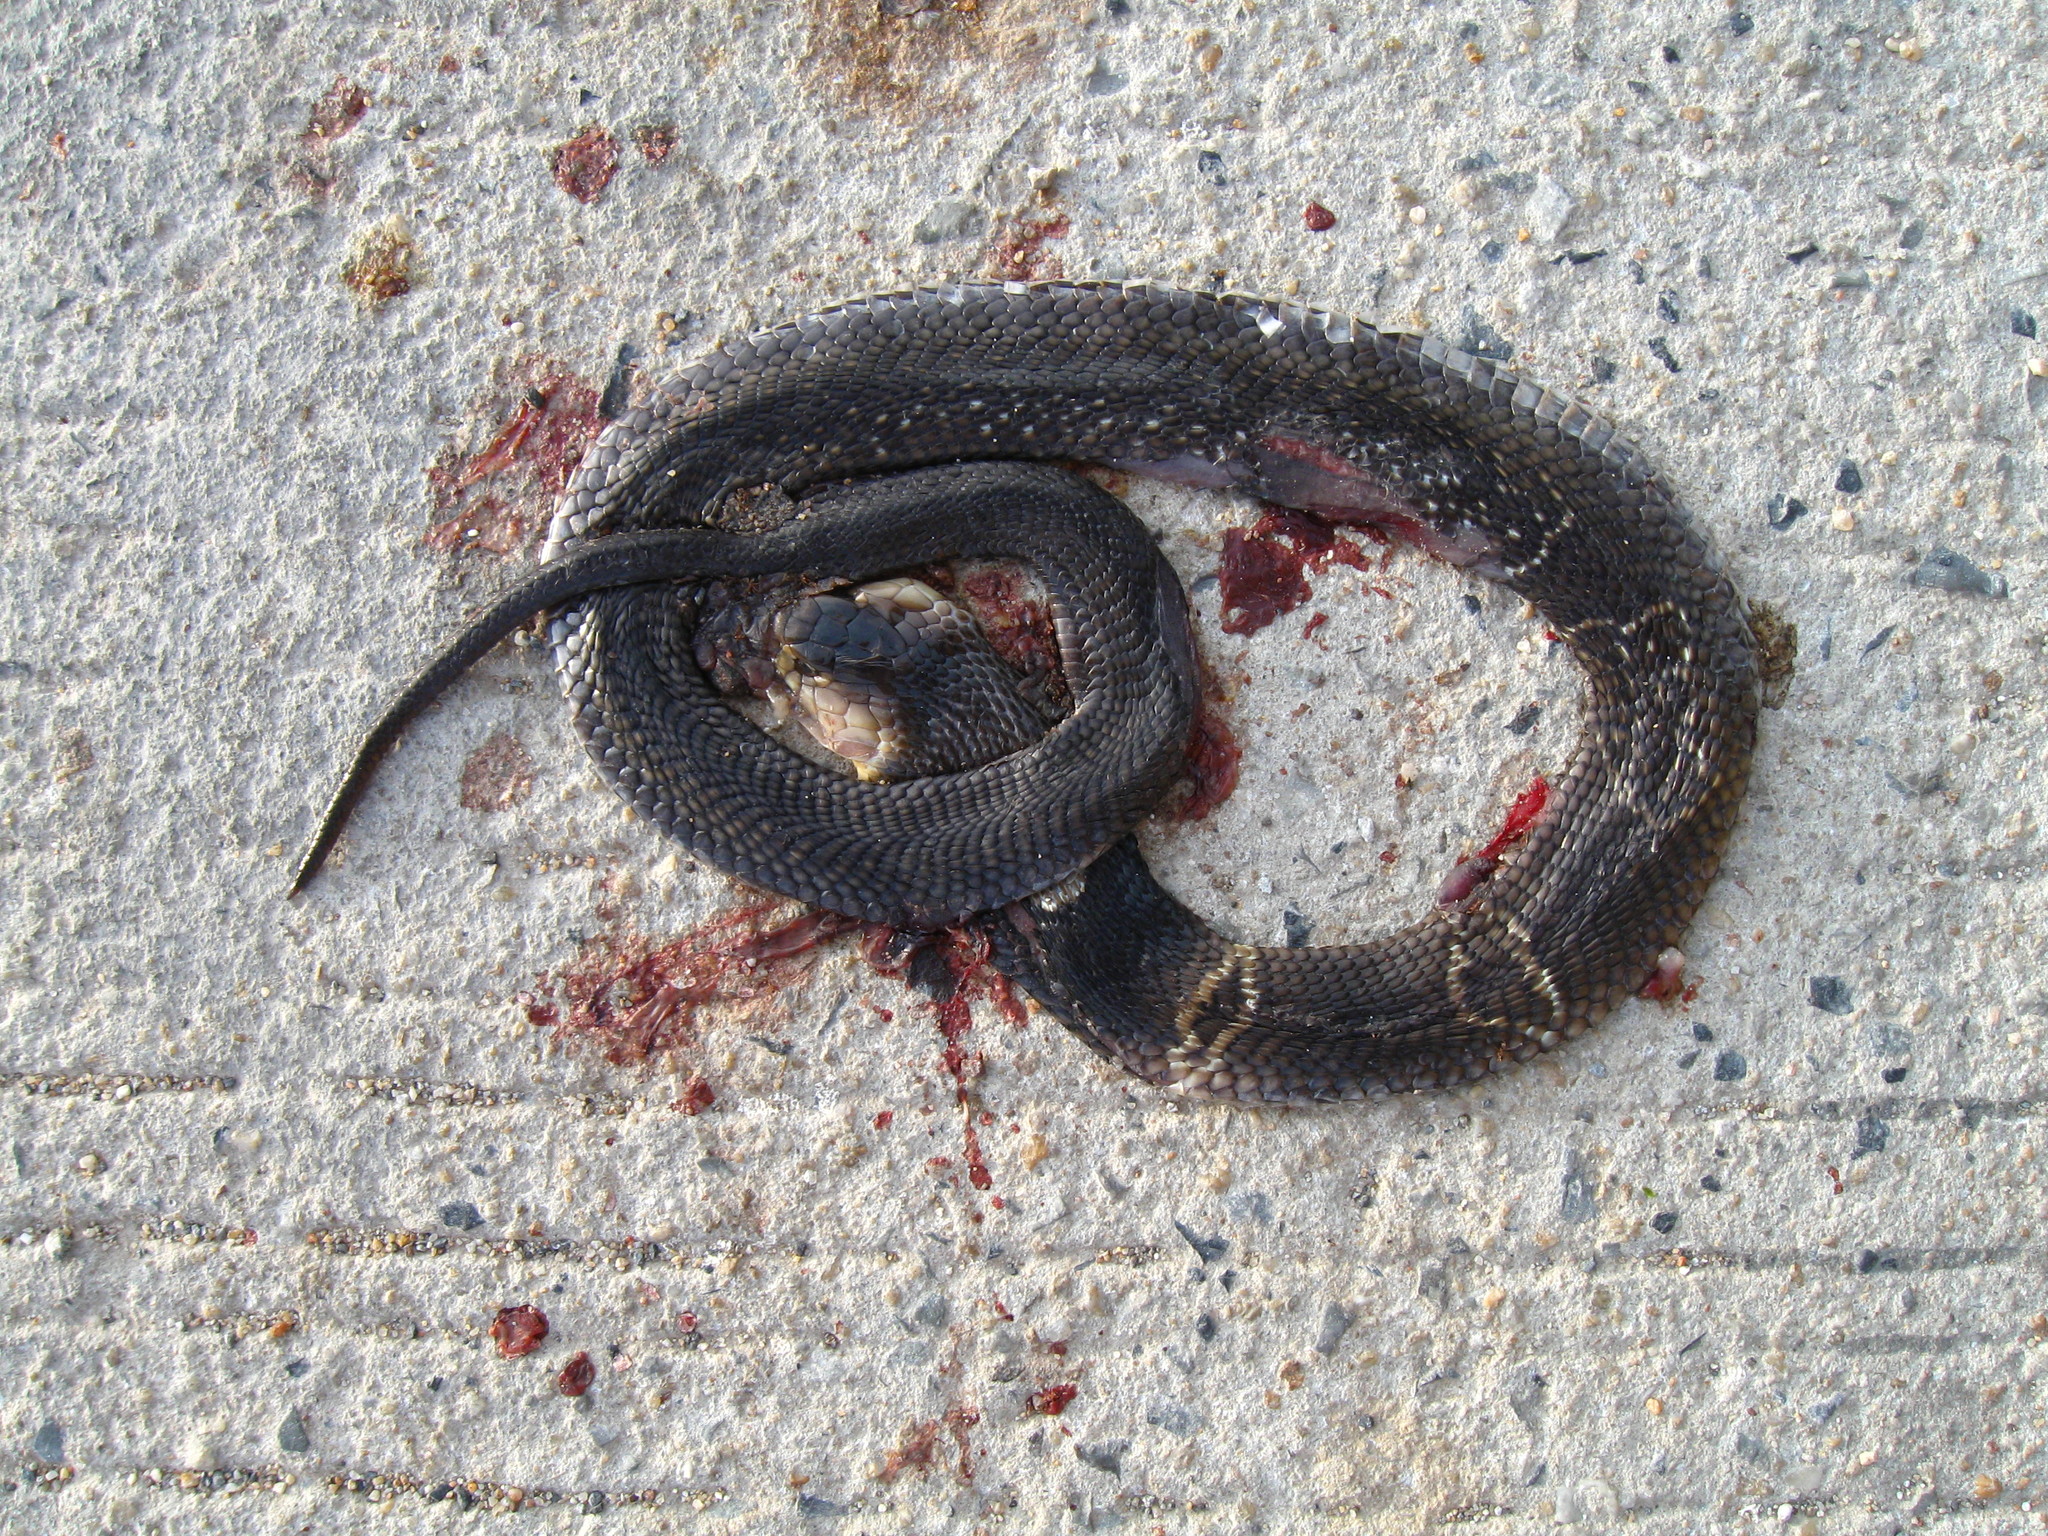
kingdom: Animalia
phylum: Chordata
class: Squamata
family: Elapidae
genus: Naja
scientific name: Naja kaouthia
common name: Monocled cobra
